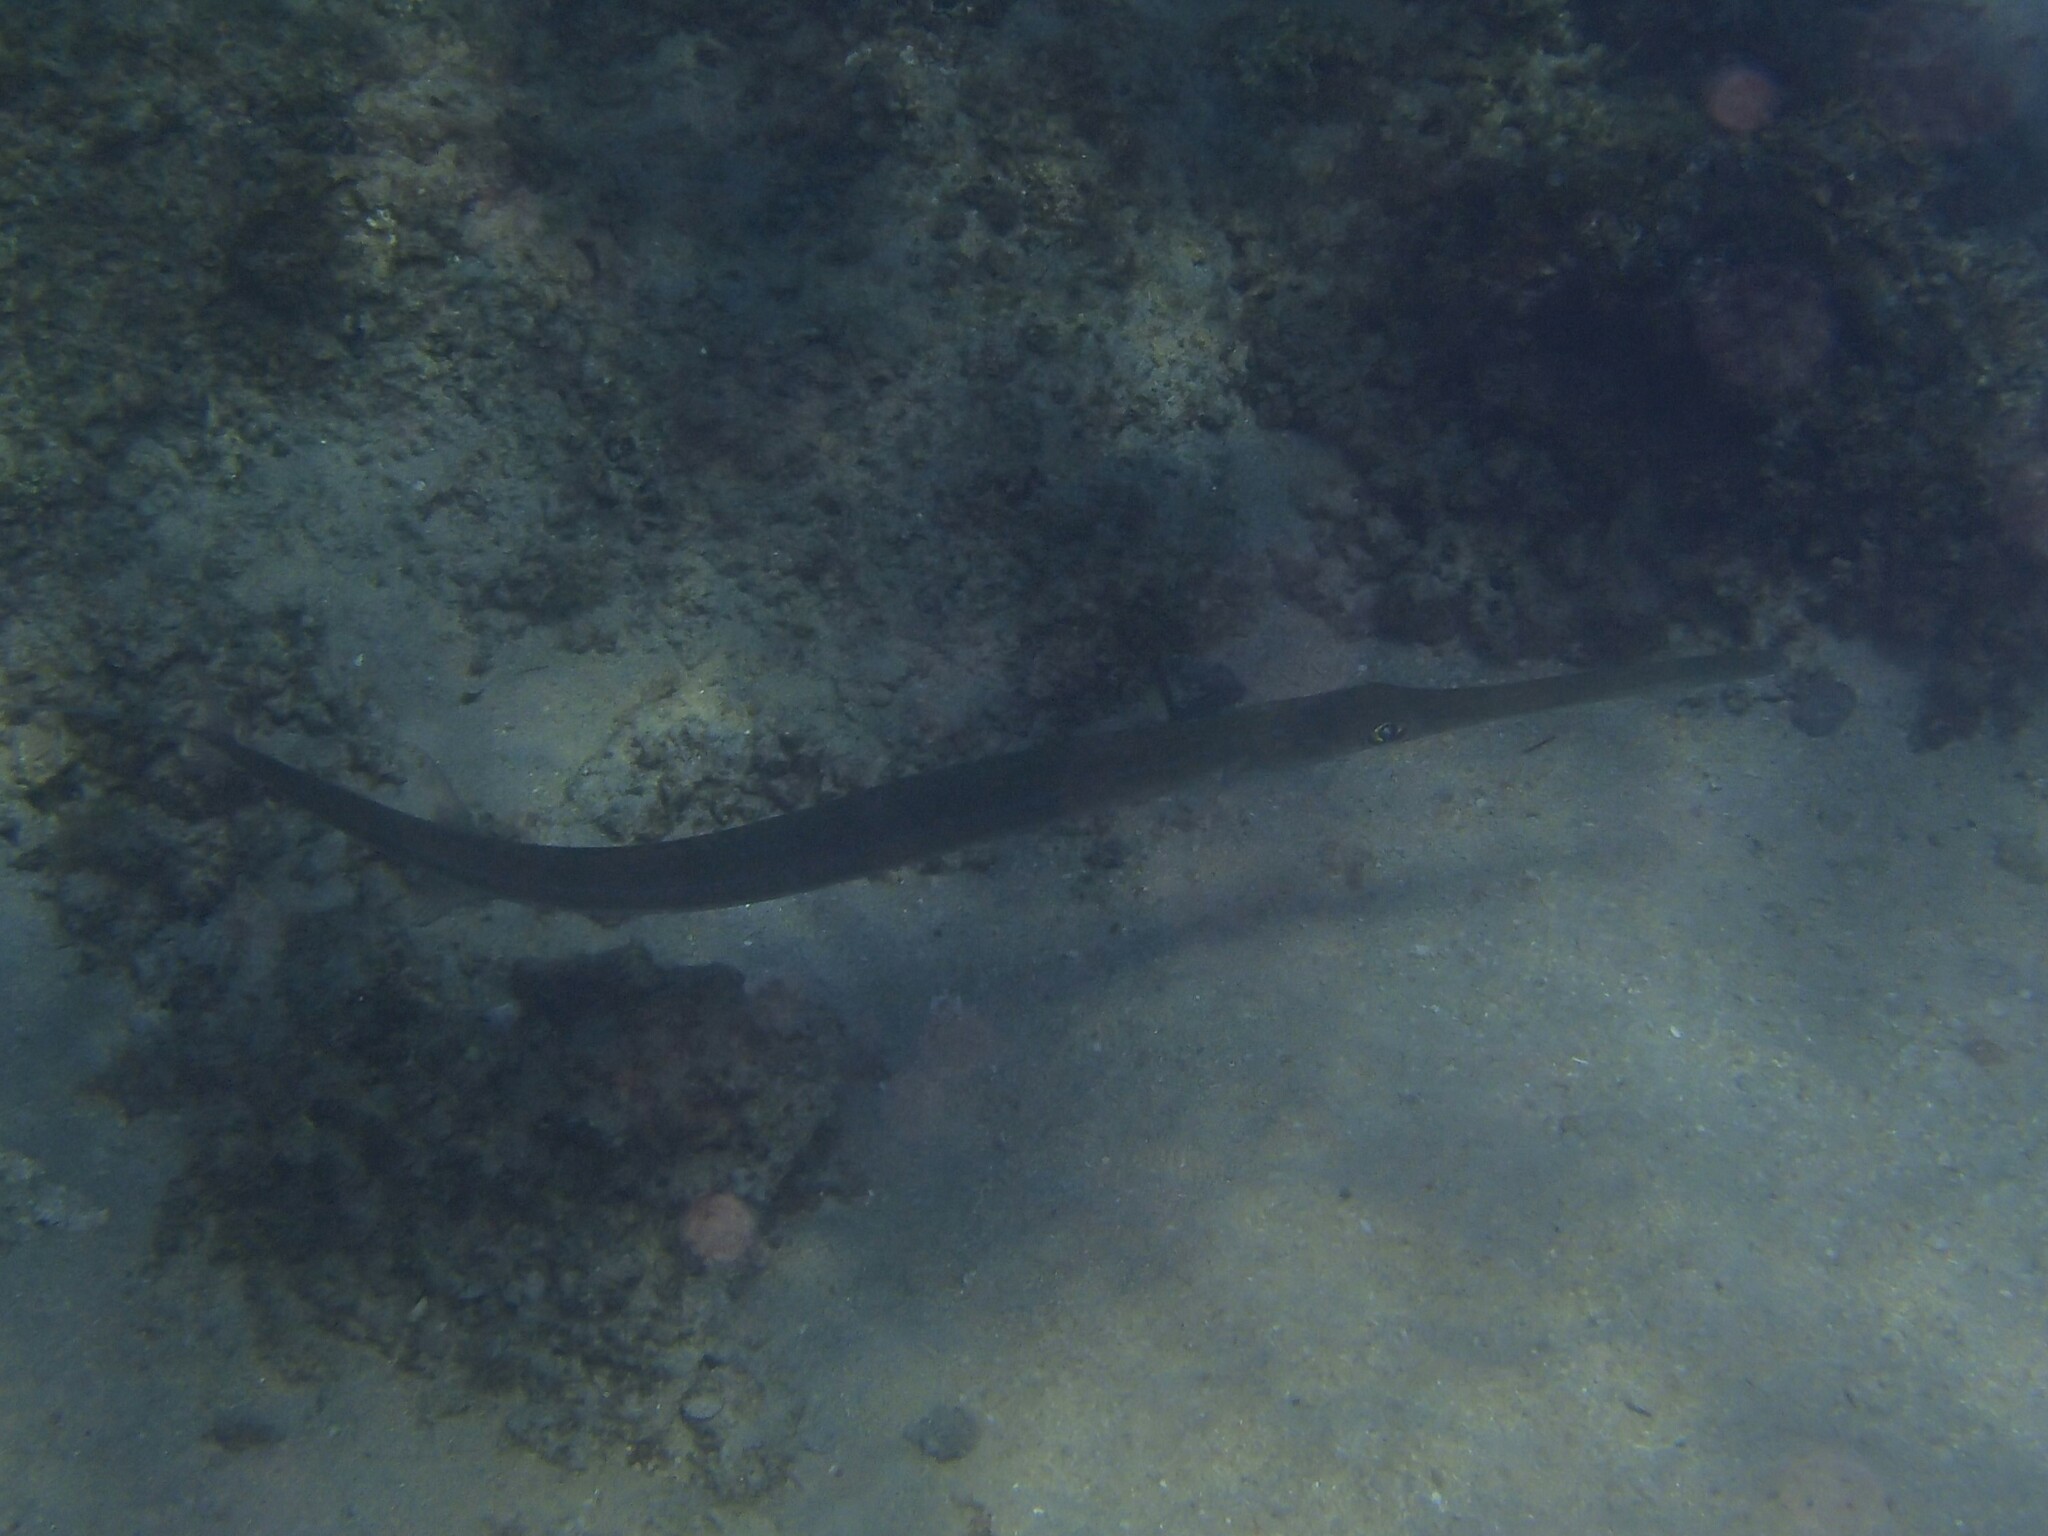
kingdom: Animalia
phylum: Chordata
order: Syngnathiformes
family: Fistulariidae
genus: Fistularia
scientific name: Fistularia commersonii
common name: Bluespotted cornetfish
